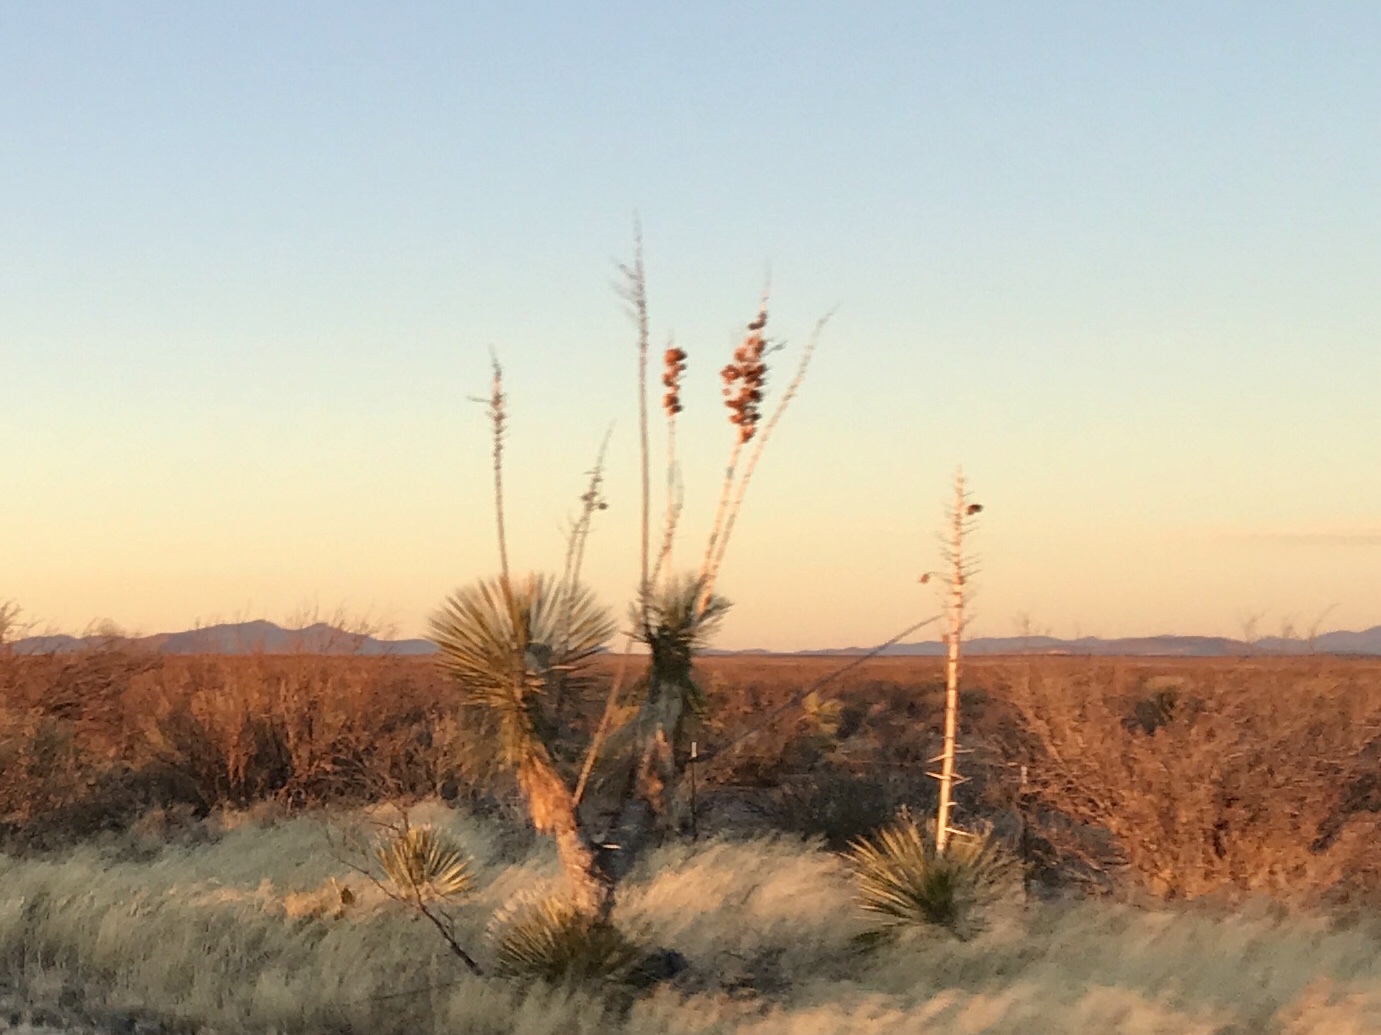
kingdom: Plantae
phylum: Tracheophyta
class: Liliopsida
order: Asparagales
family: Asparagaceae
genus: Yucca
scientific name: Yucca elata
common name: Palmella
